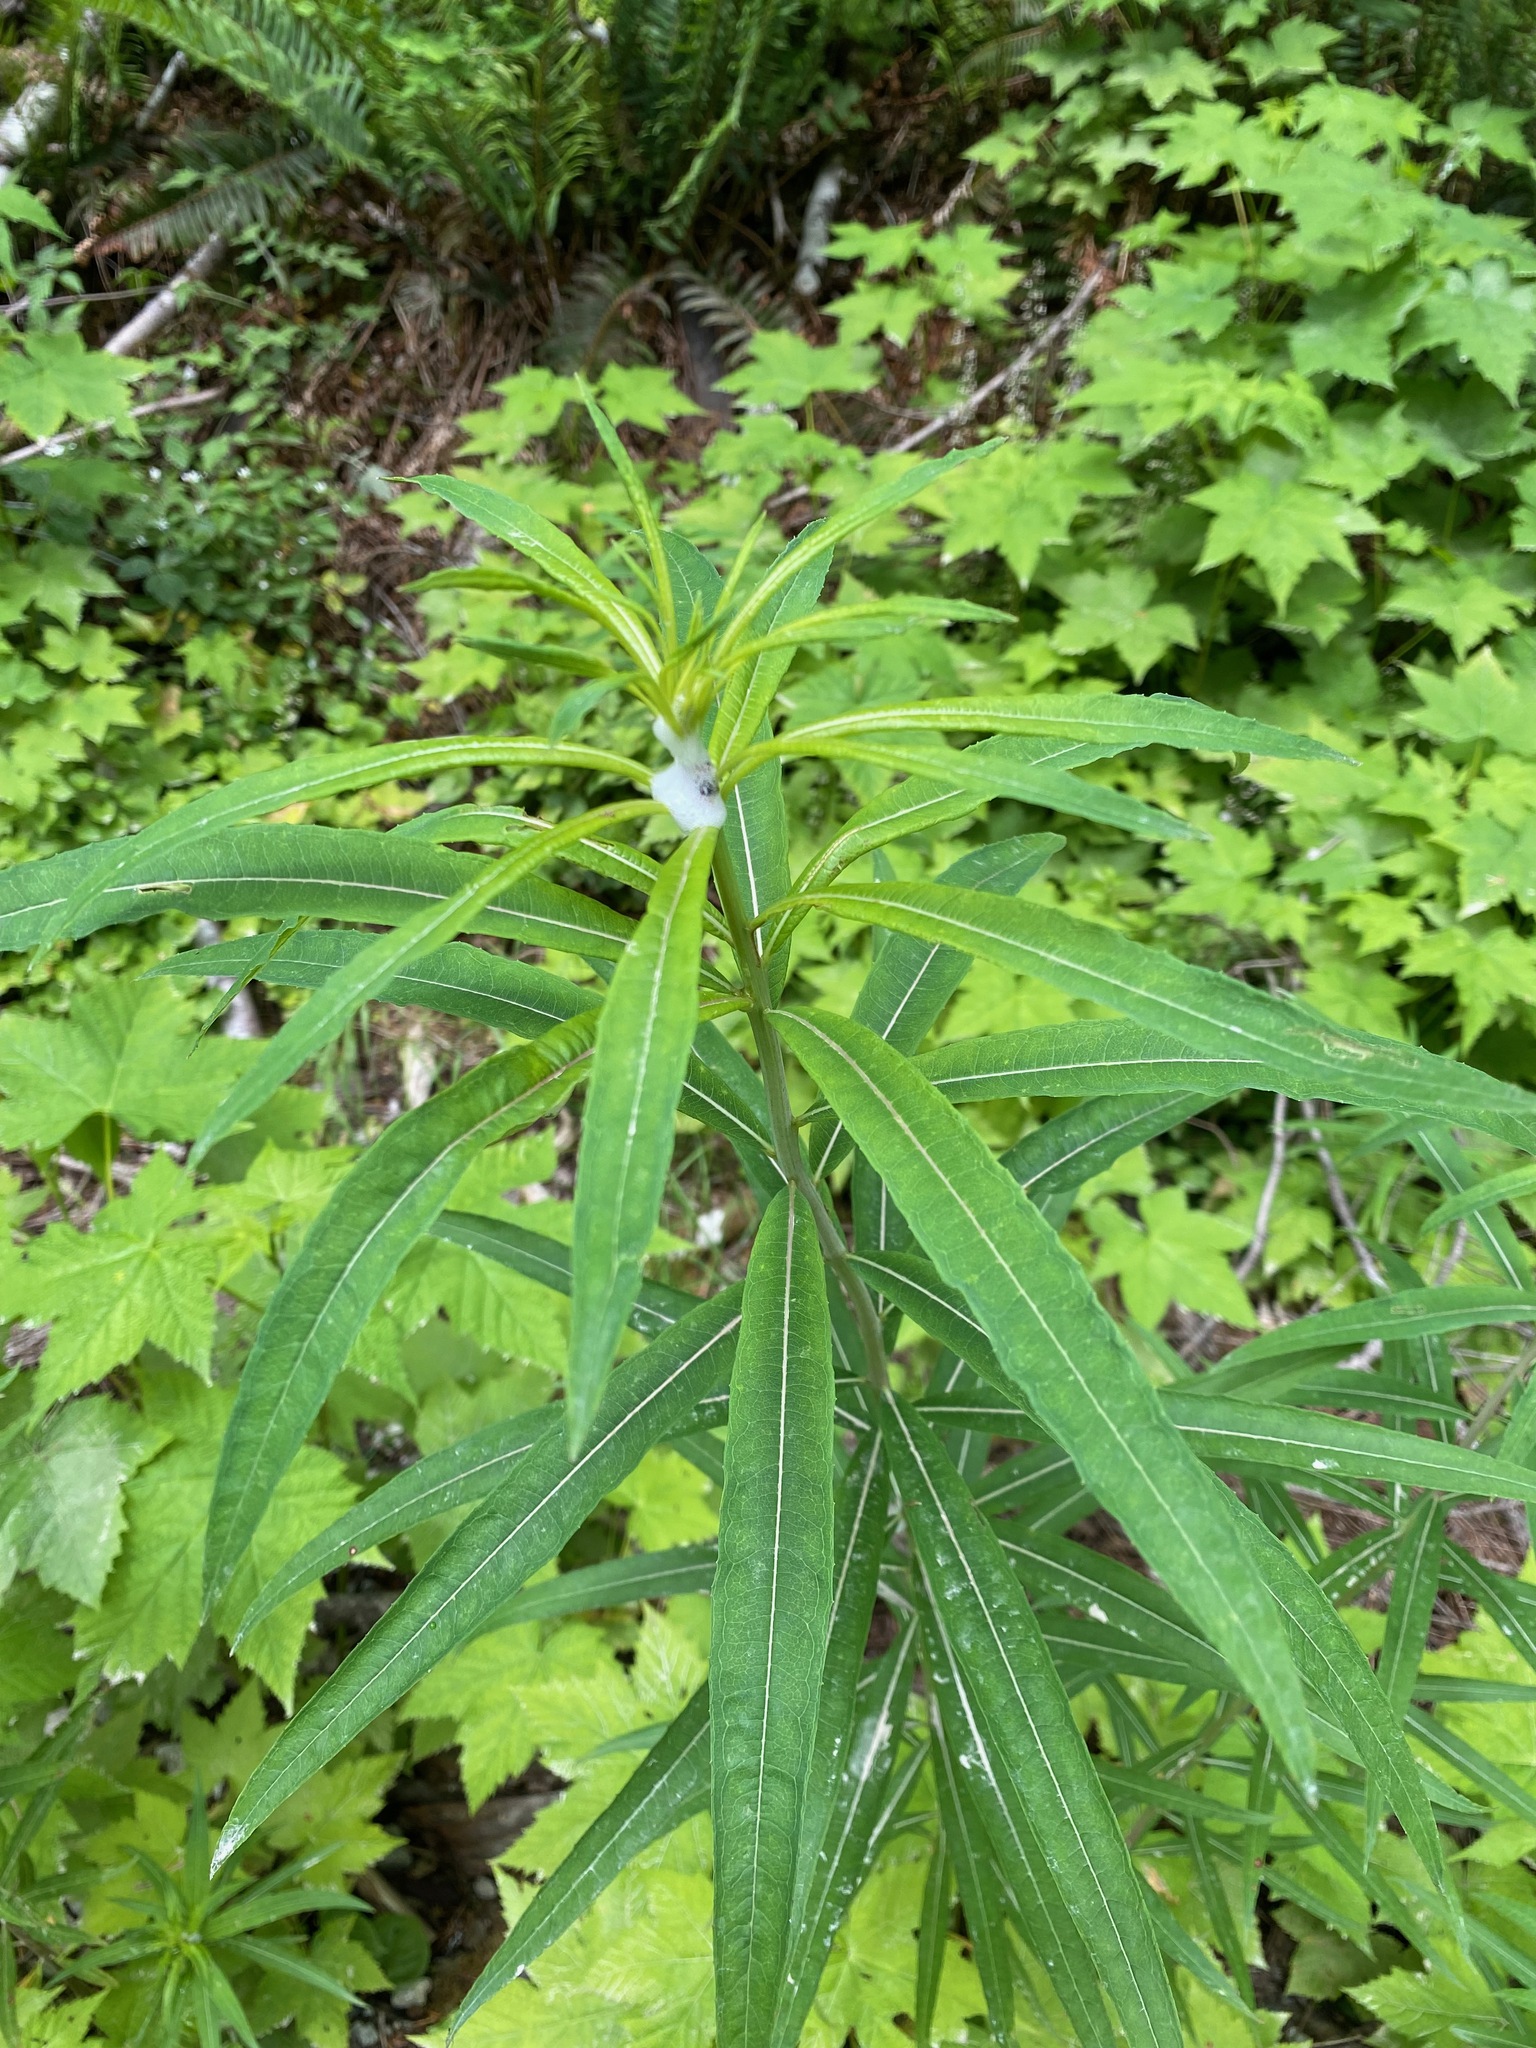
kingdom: Plantae
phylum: Tracheophyta
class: Magnoliopsida
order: Myrtales
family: Onagraceae
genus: Chamaenerion
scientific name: Chamaenerion angustifolium
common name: Fireweed
